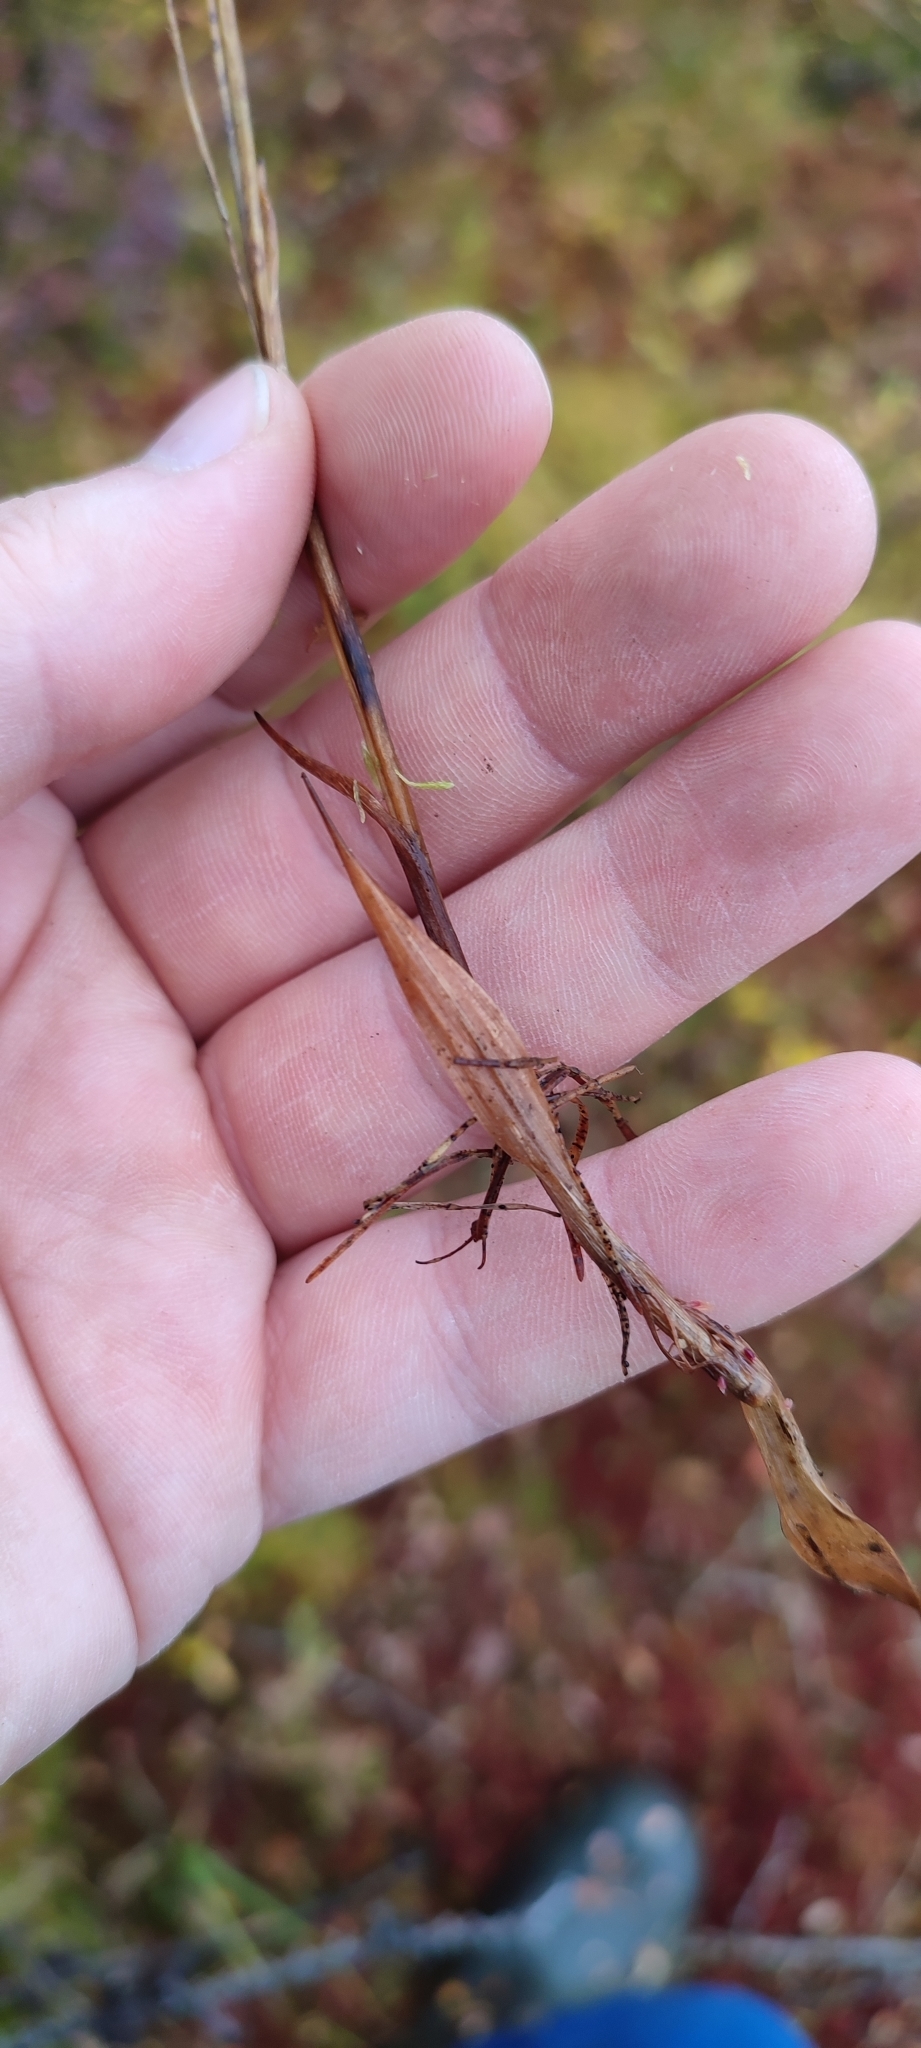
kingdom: Plantae
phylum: Tracheophyta
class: Liliopsida
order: Poales
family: Juncaceae
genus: Luzula
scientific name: Luzula wahlenbergii
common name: Wahlenberg's wood-rush
